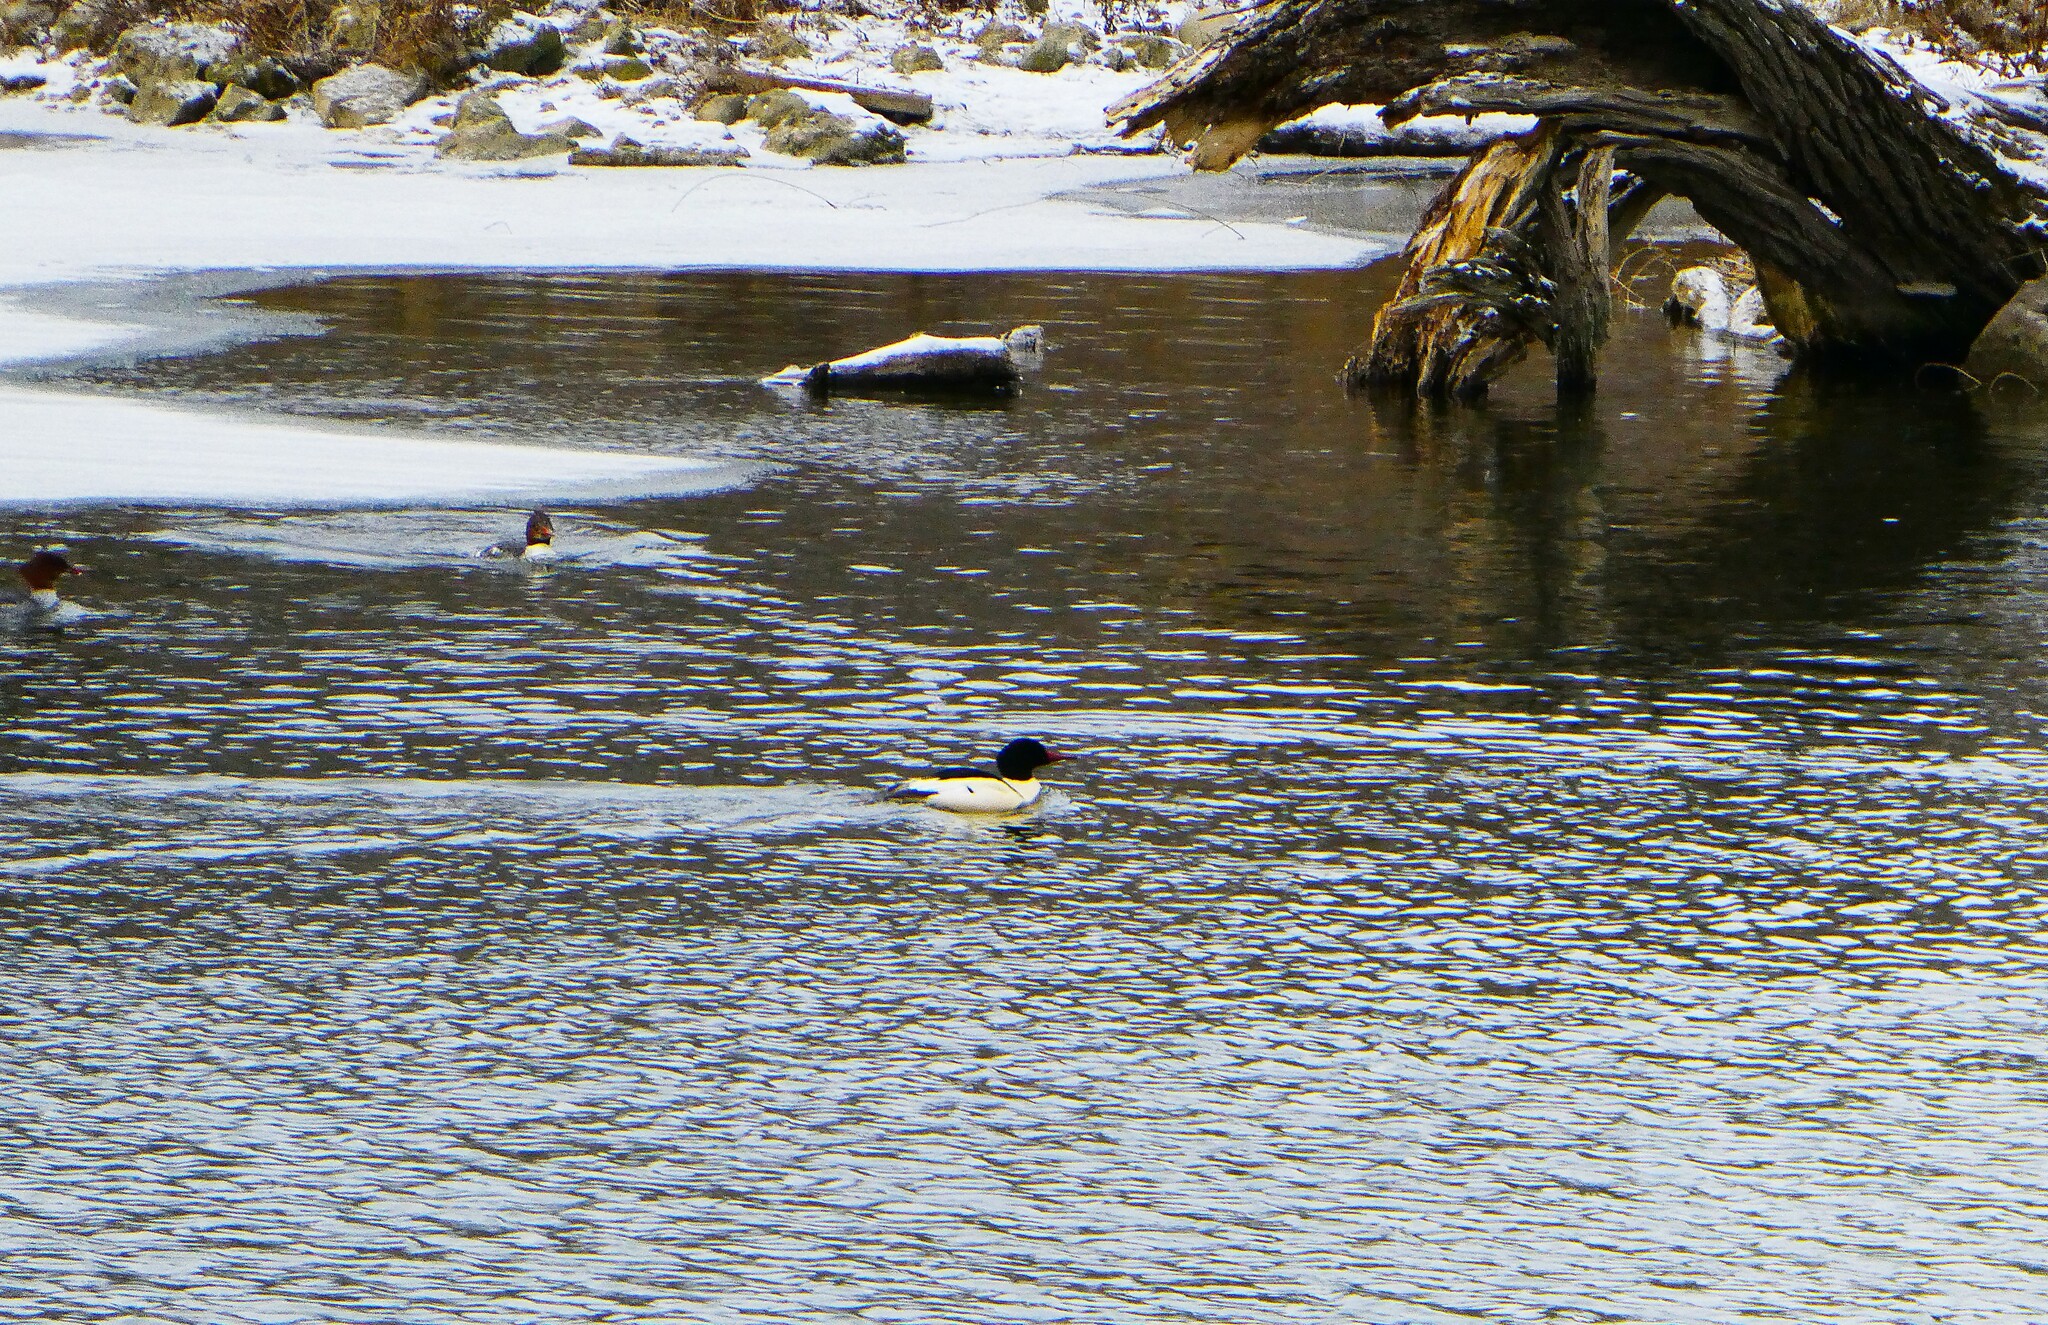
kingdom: Animalia
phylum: Chordata
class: Aves
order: Anseriformes
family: Anatidae
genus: Mergus
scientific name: Mergus merganser
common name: Common merganser
